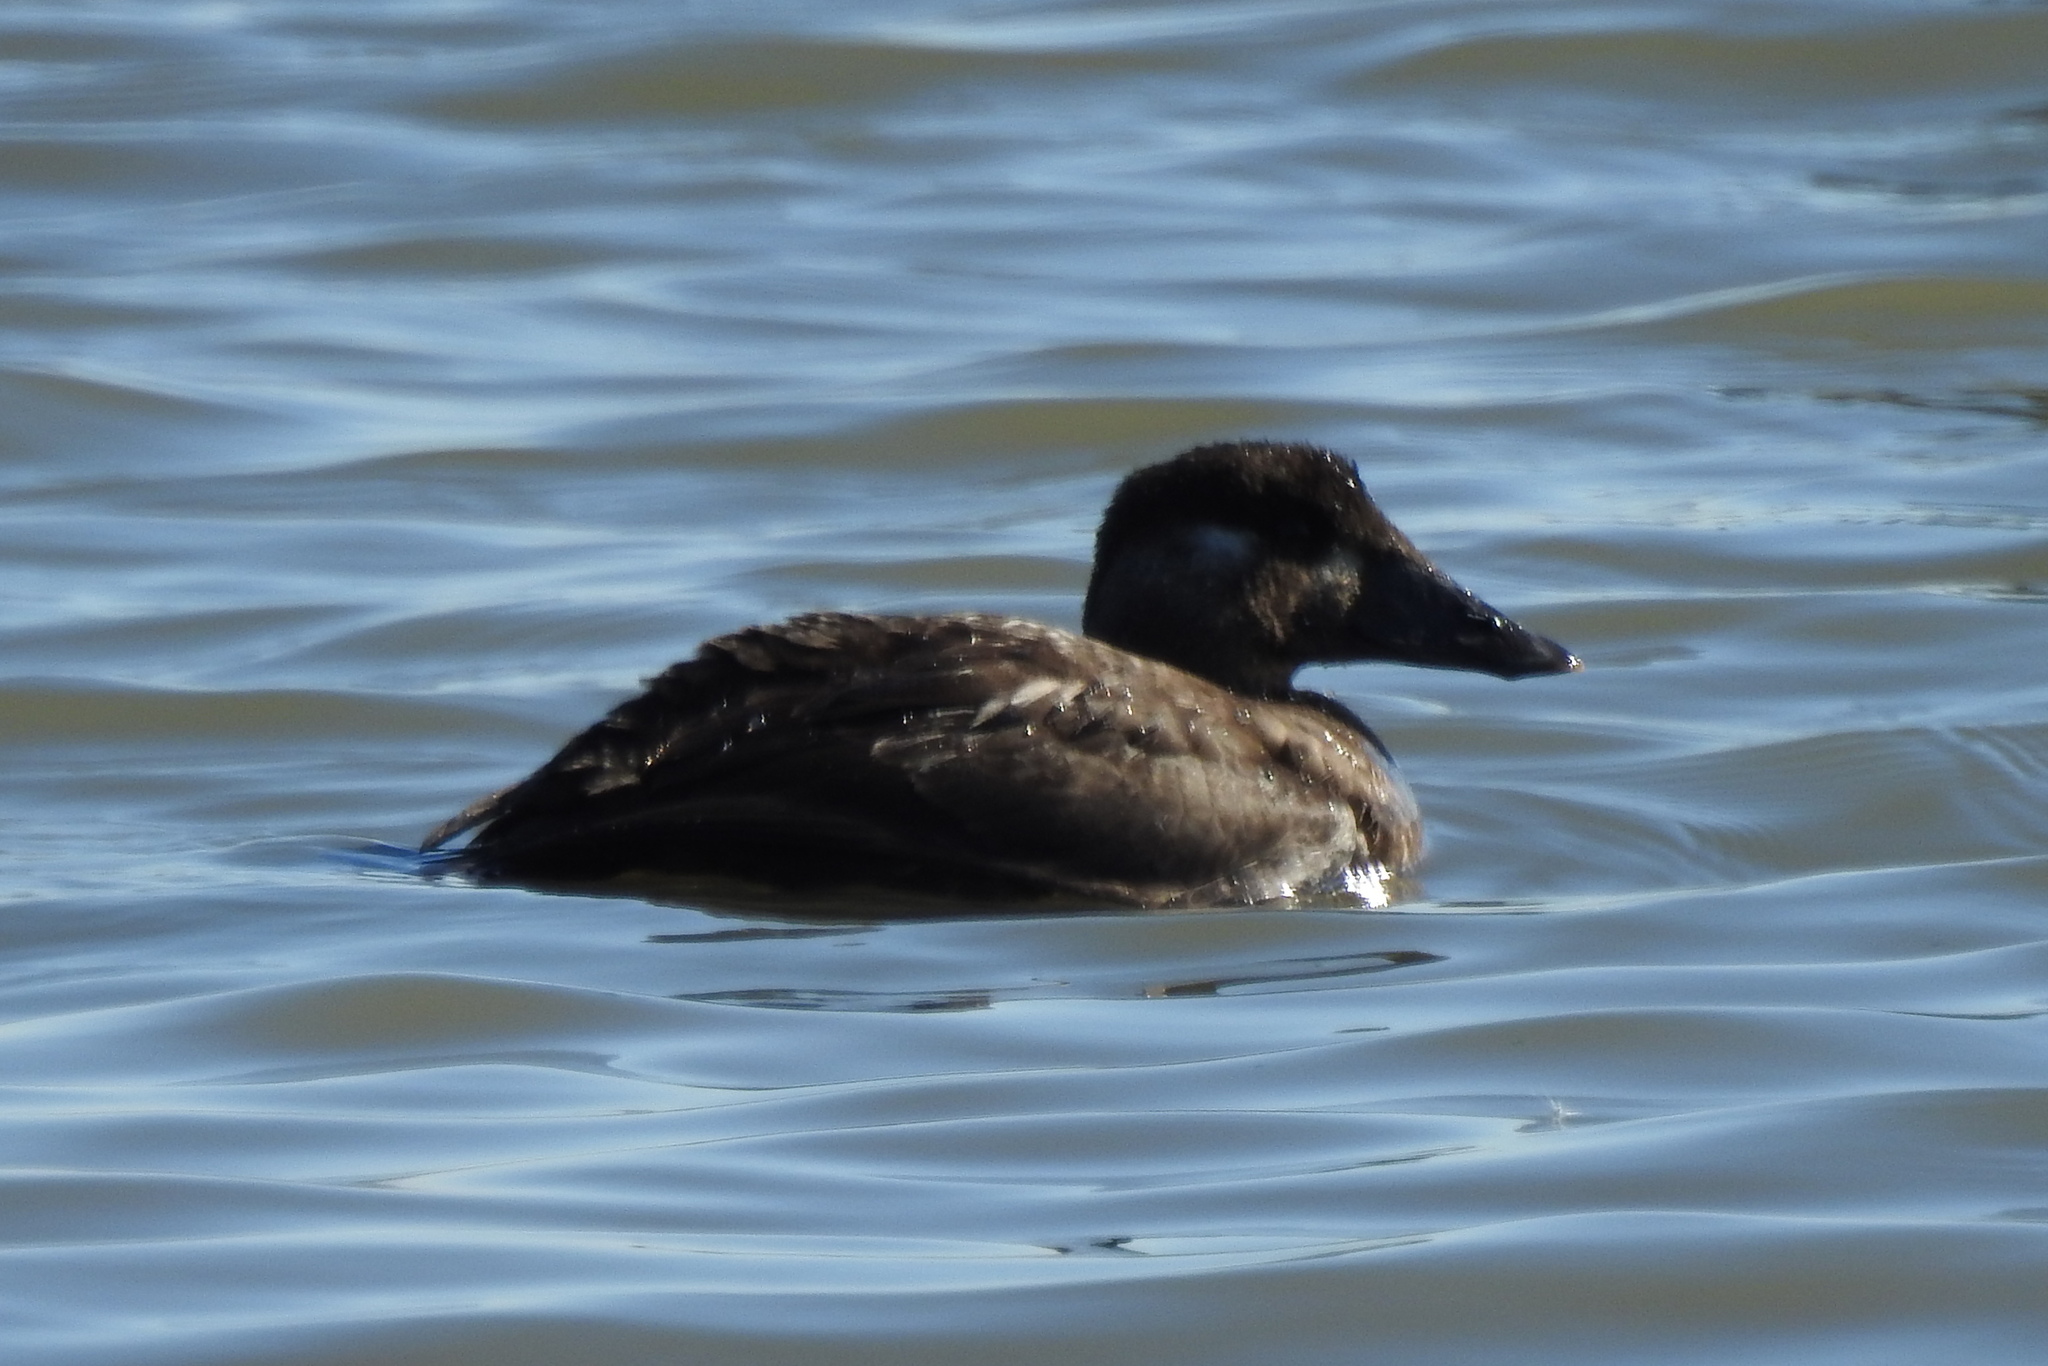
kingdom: Animalia
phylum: Chordata
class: Aves
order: Anseriformes
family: Anatidae
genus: Melanitta
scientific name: Melanitta perspicillata
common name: Surf scoter
